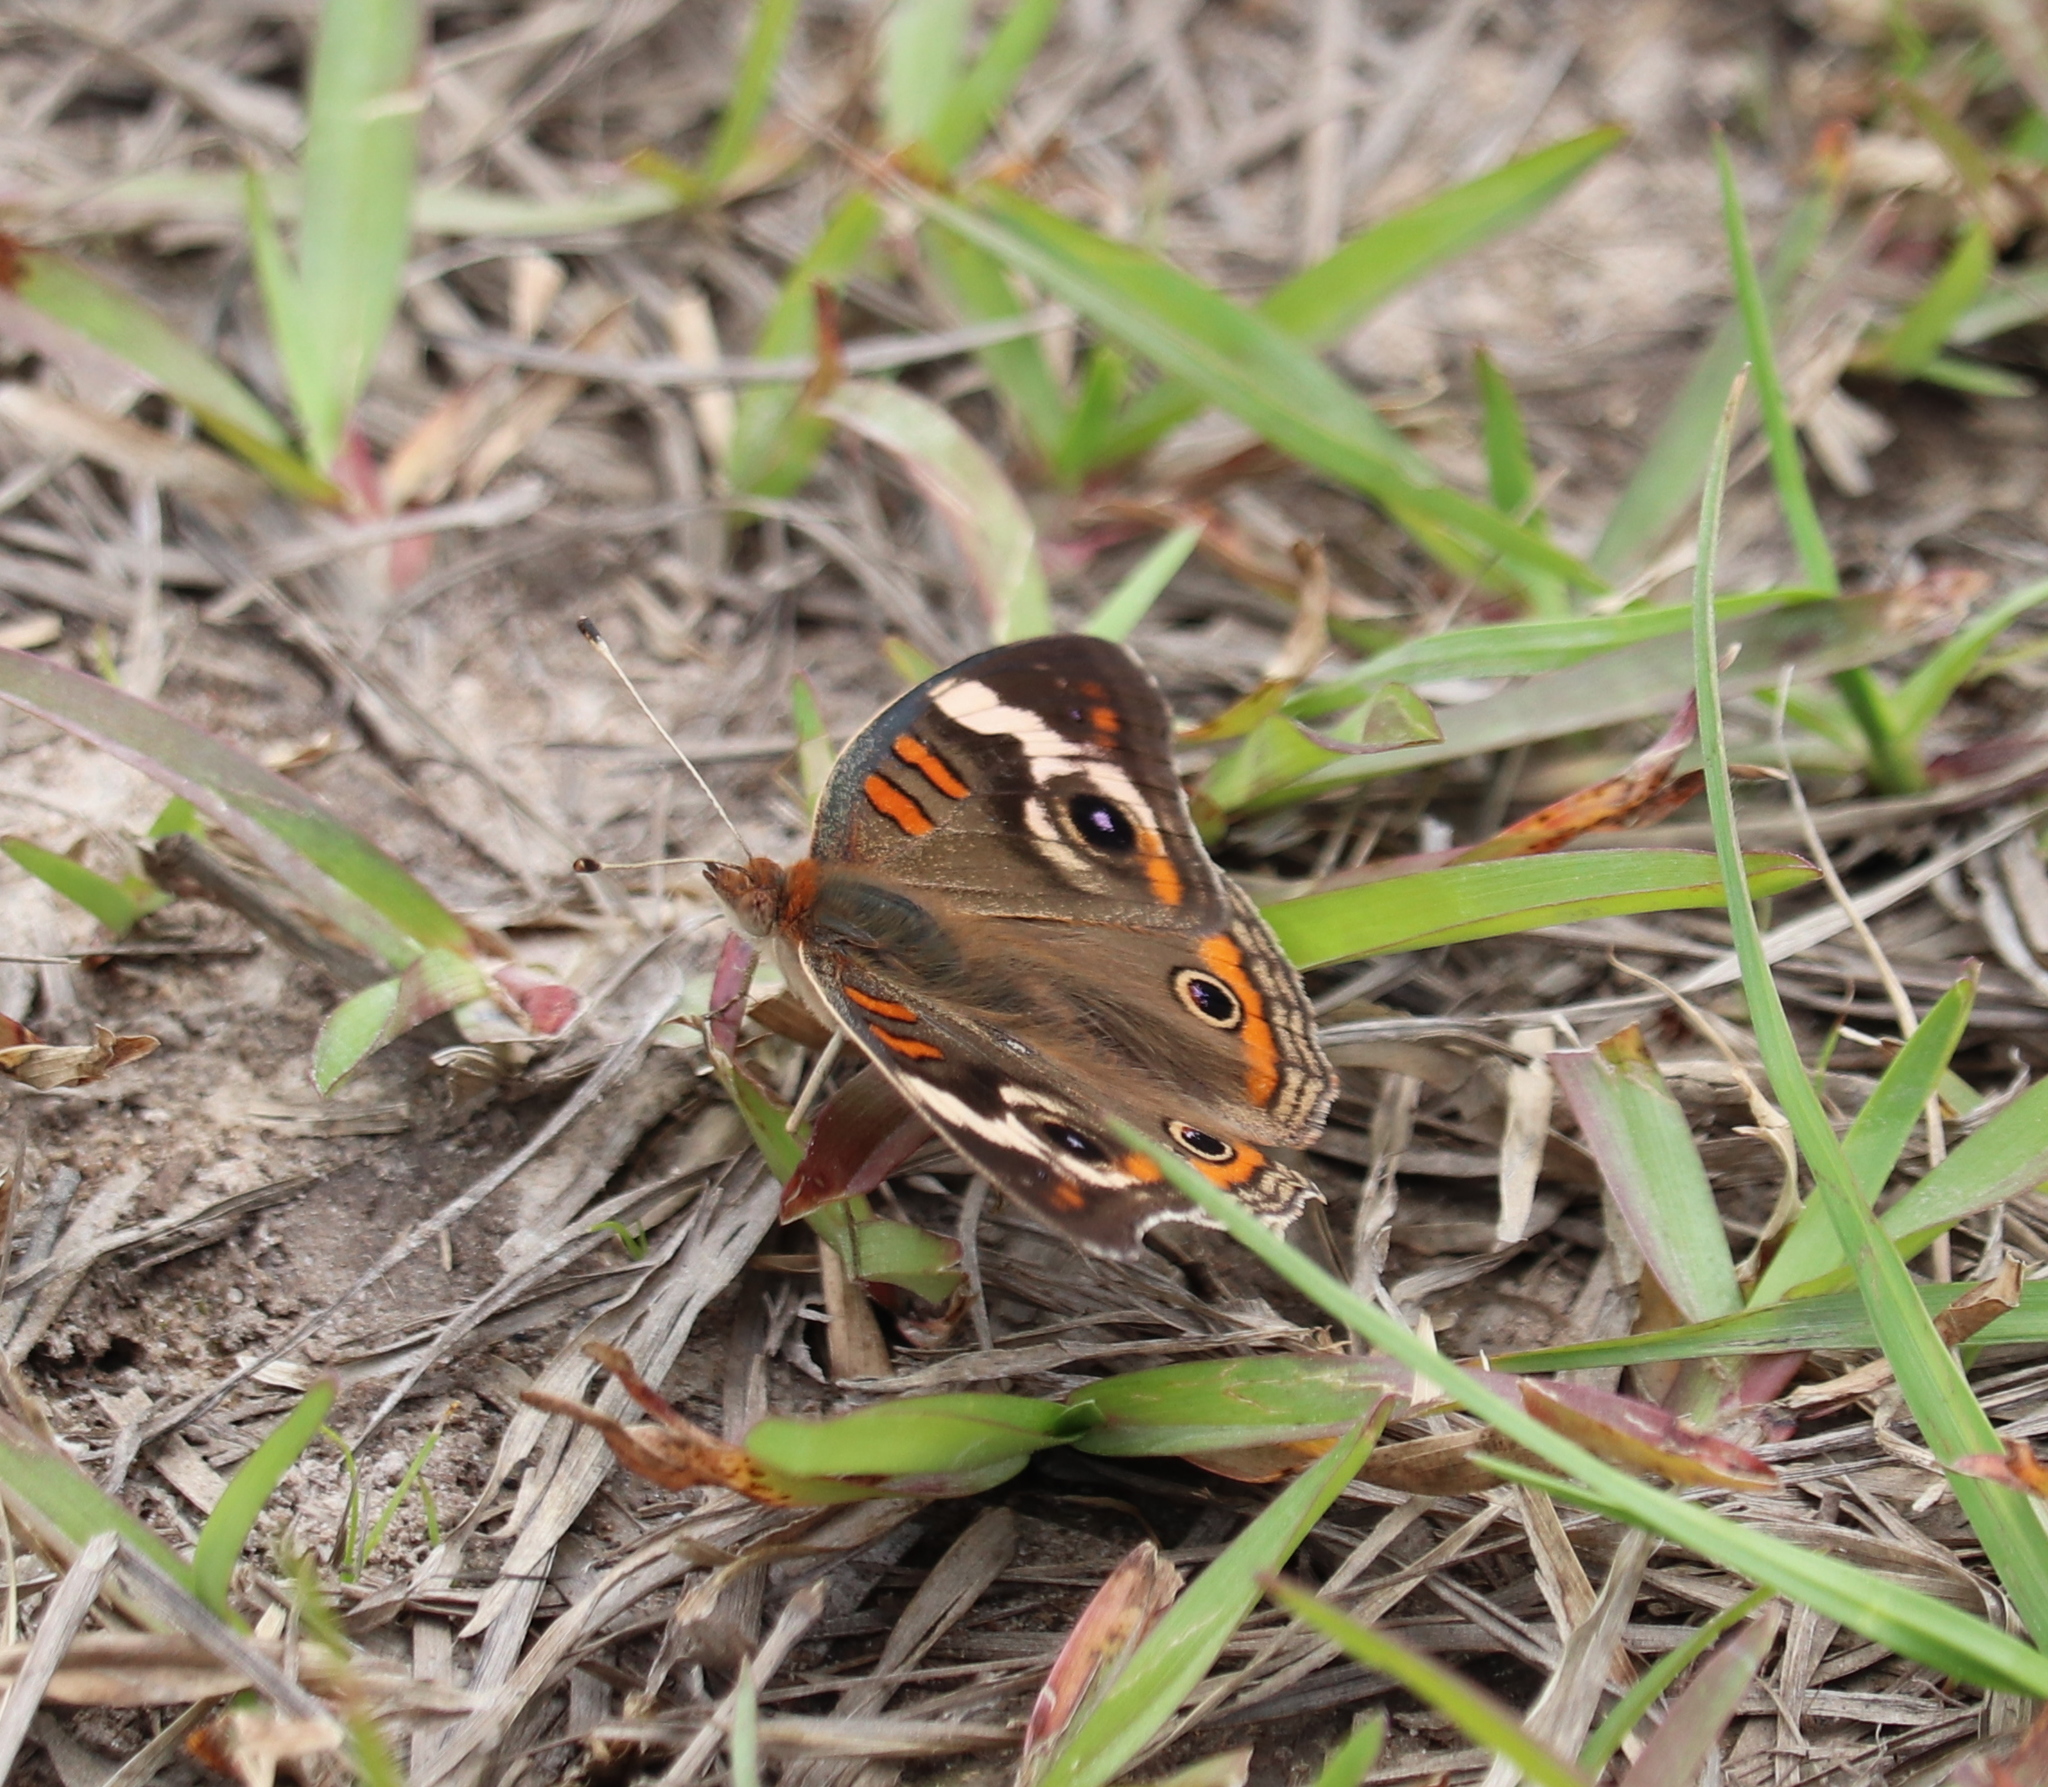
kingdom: Animalia
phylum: Arthropoda
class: Insecta
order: Lepidoptera
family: Nymphalidae
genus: Junonia
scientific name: Junonia coenia
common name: Common buckeye
